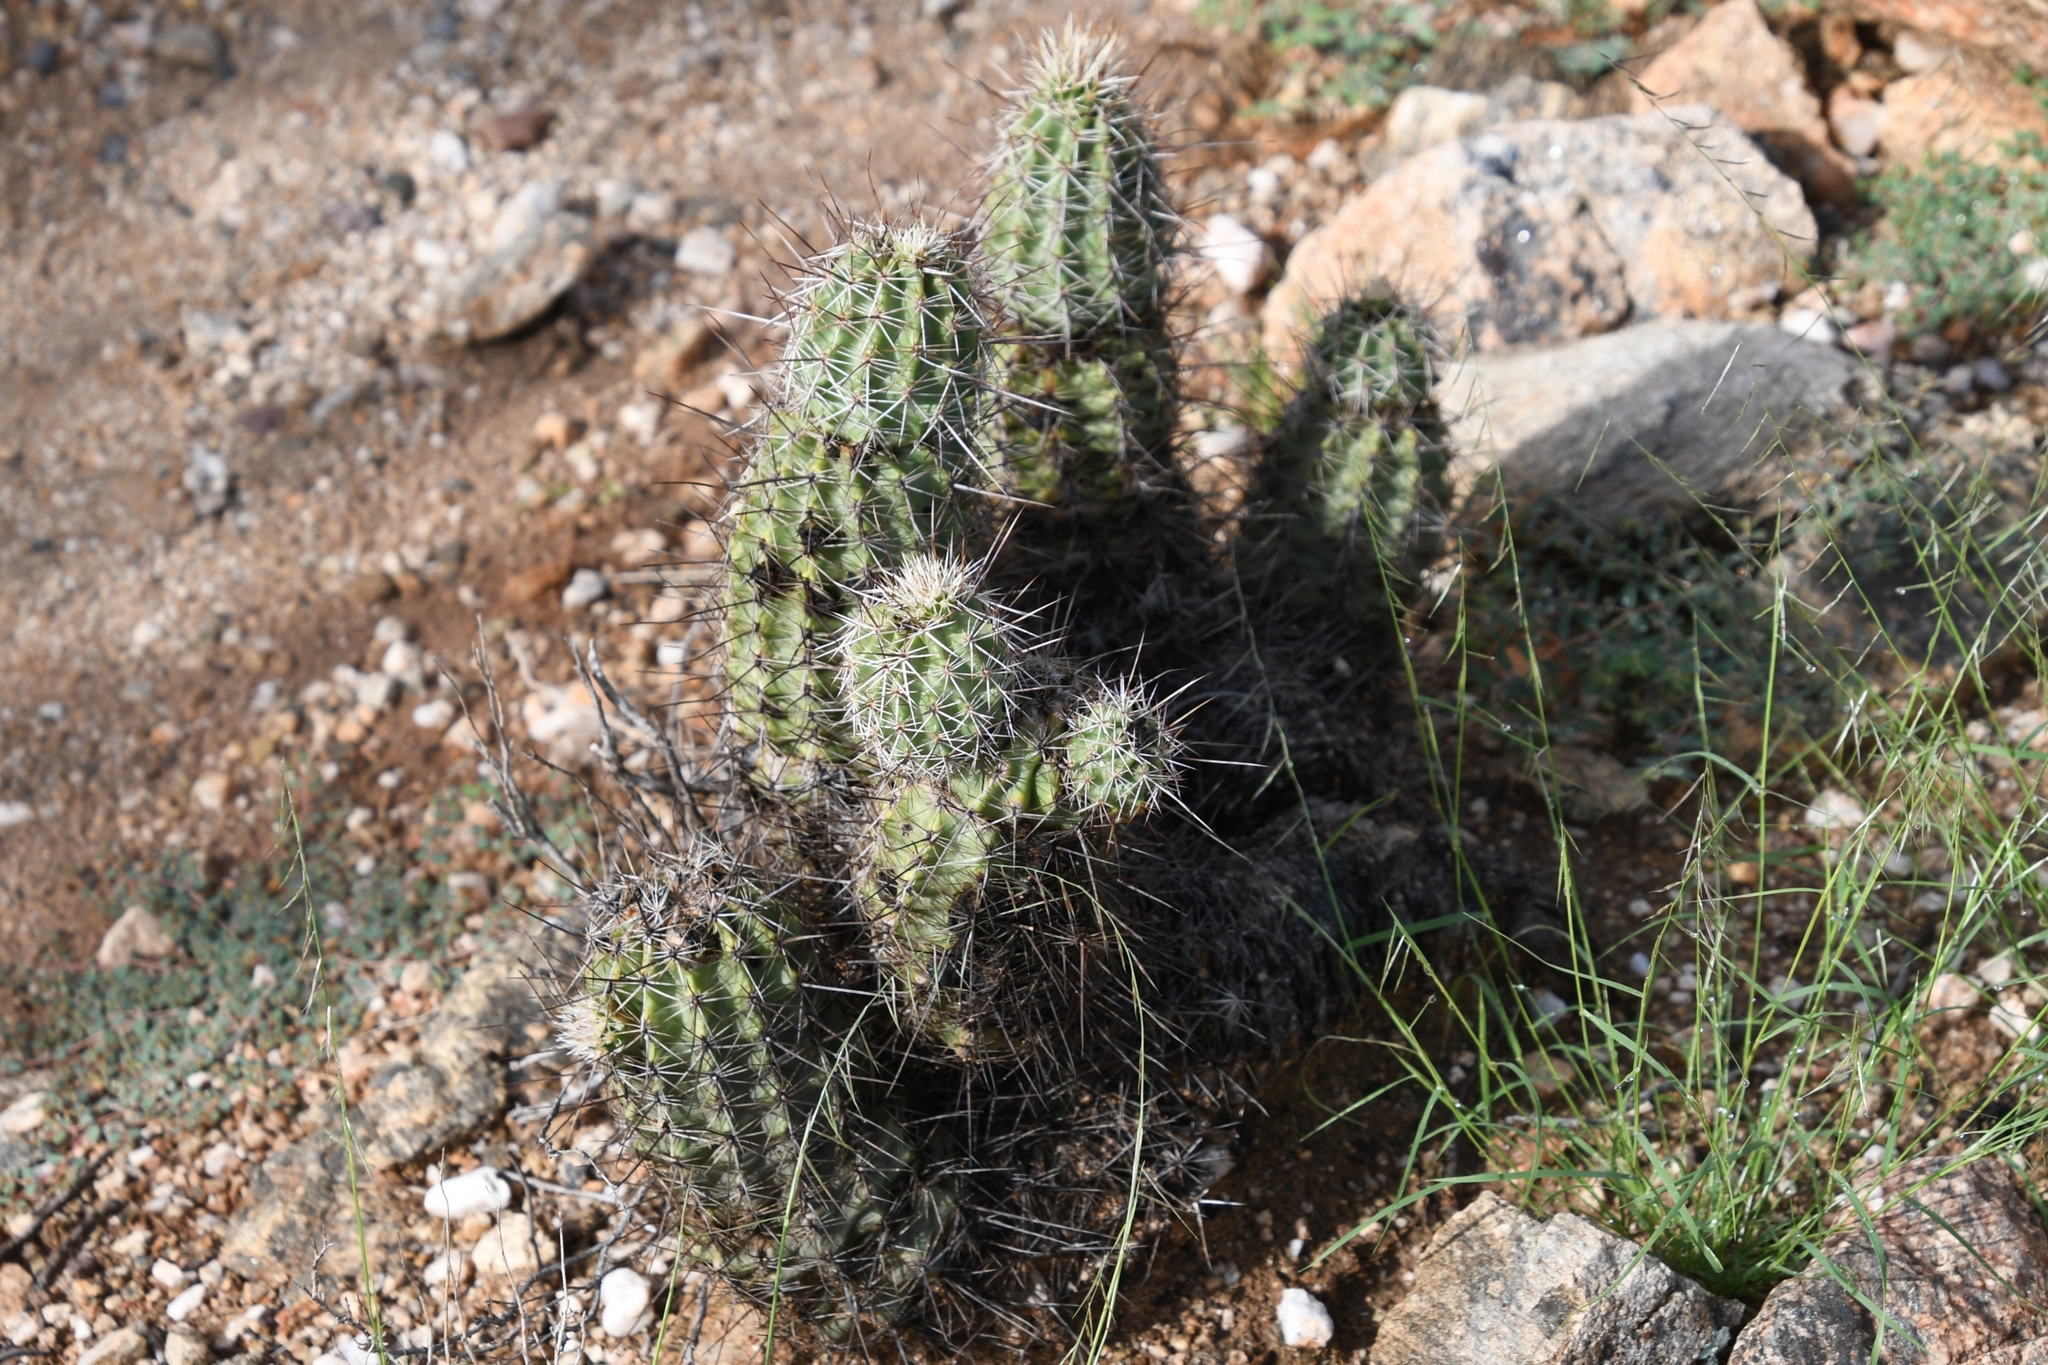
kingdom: Plantae
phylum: Tracheophyta
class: Magnoliopsida
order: Caryophyllales
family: Cactaceae
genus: Echinocereus
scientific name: Echinocereus fasciculatus
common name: Bundle hedgehog
